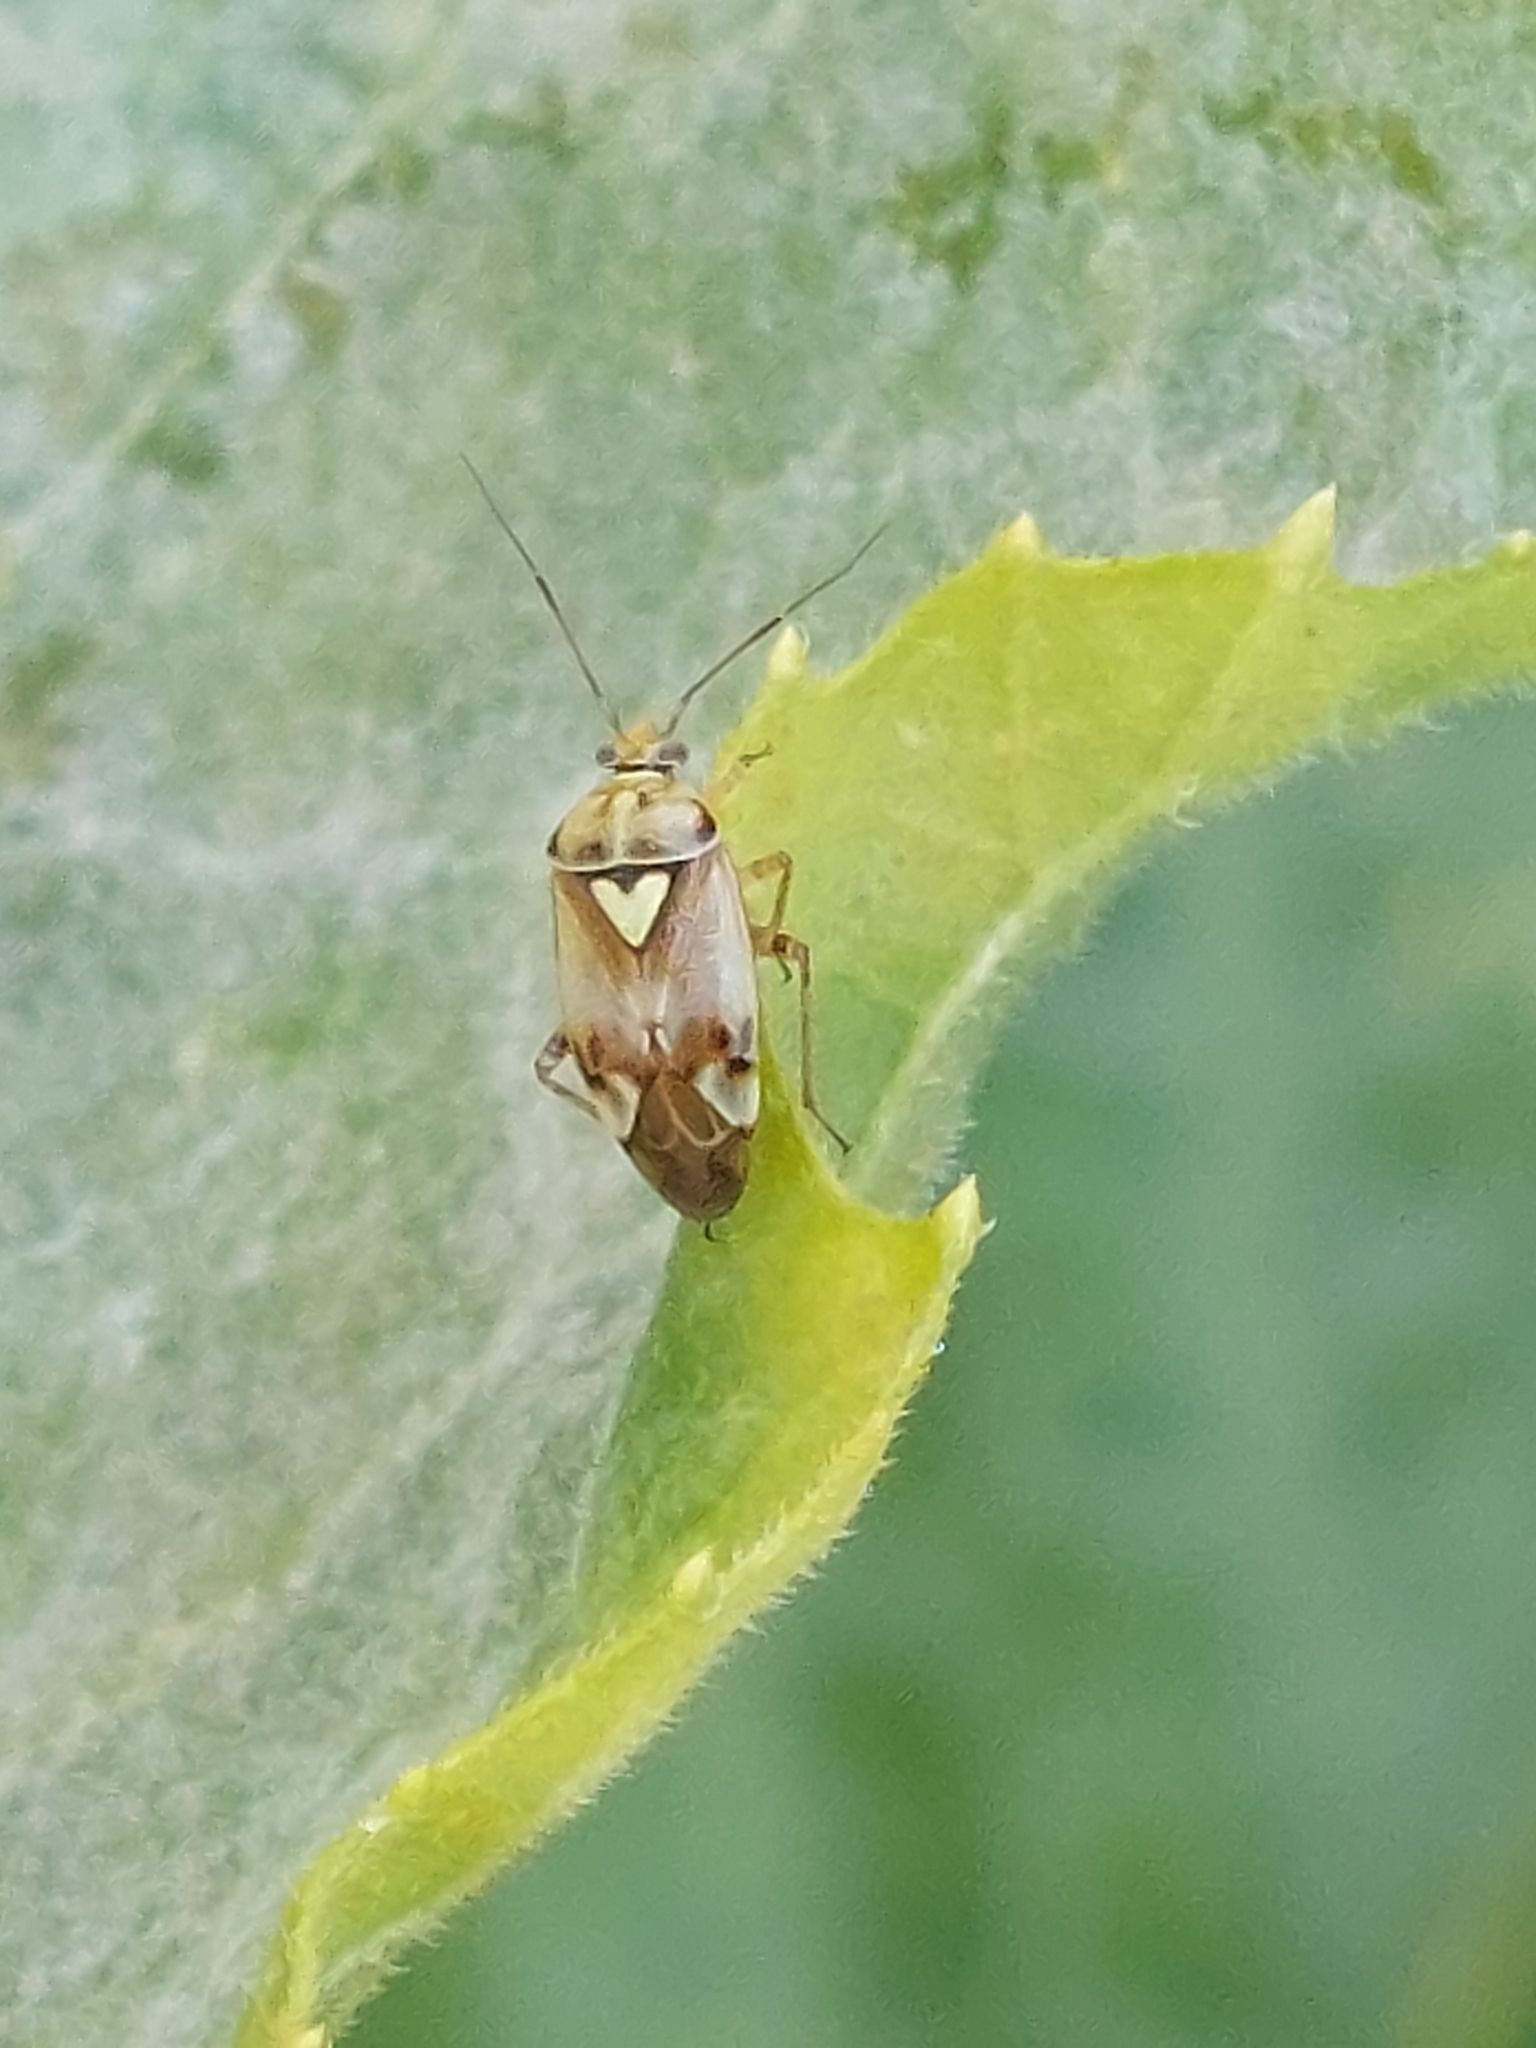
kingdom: Animalia
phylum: Arthropoda
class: Insecta
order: Hemiptera
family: Miridae
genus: Lygus
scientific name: Lygus pratensis
